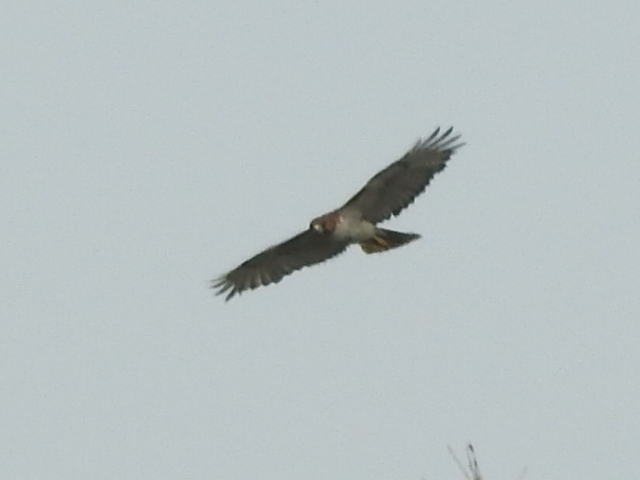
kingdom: Animalia
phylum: Chordata
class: Aves
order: Accipitriformes
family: Accipitridae
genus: Buteo
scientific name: Buteo jamaicensis
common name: Red-tailed hawk
